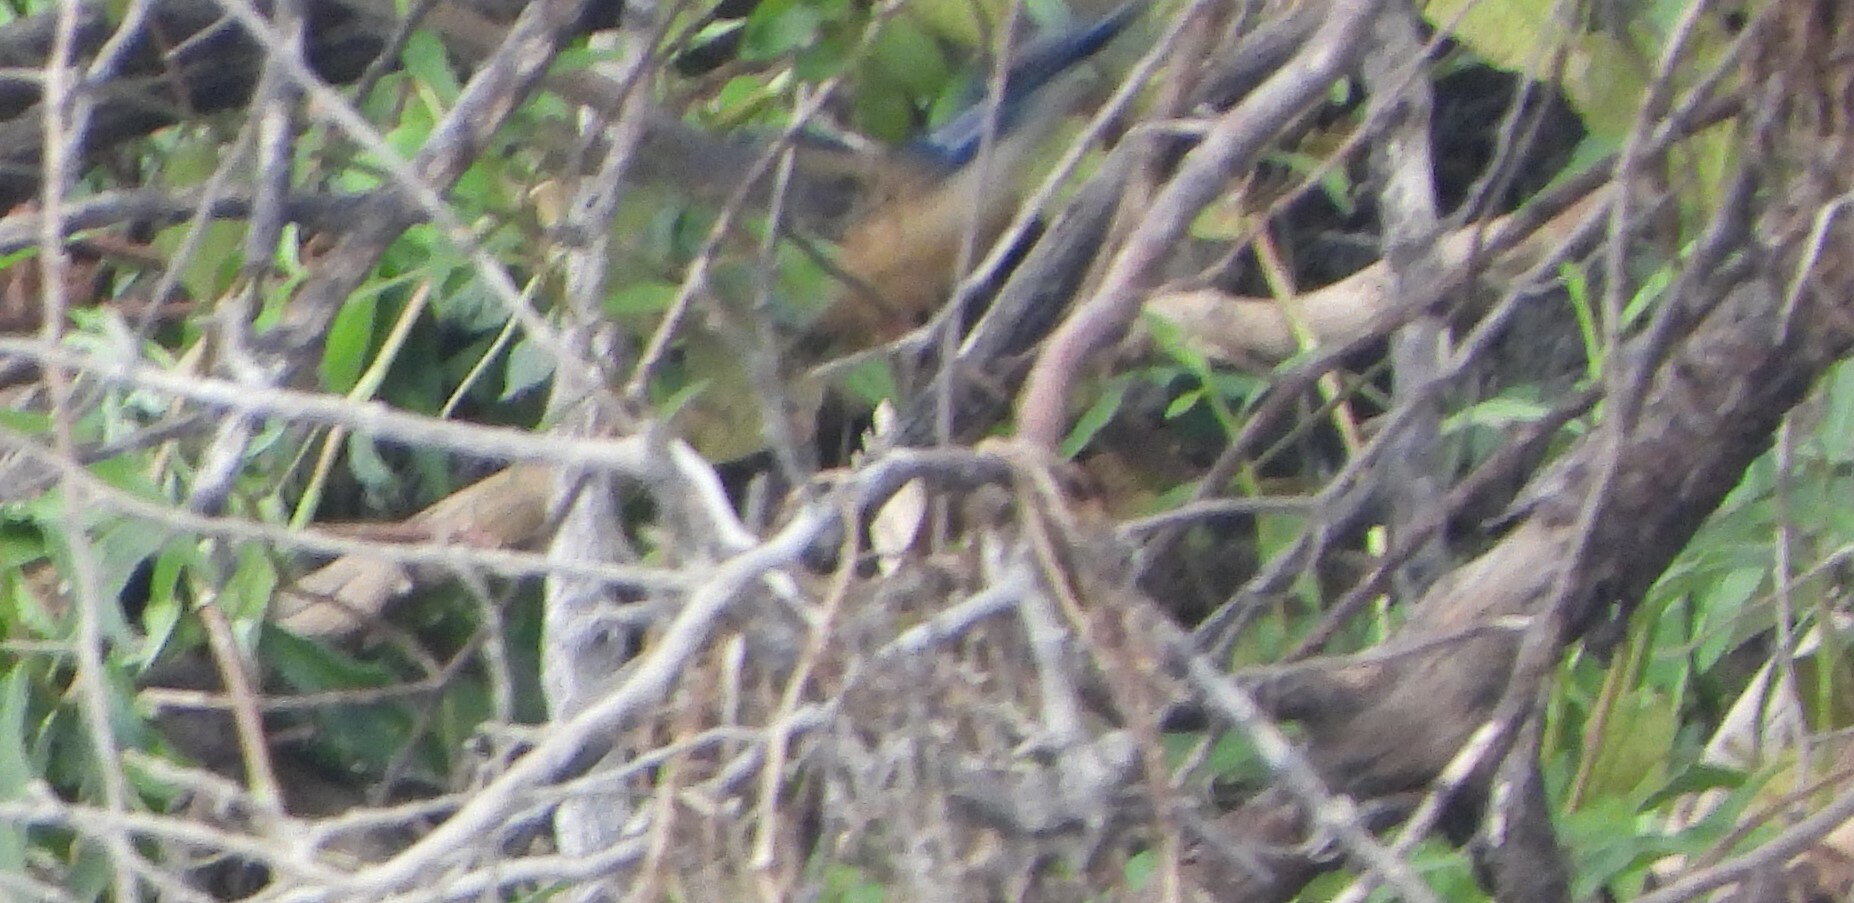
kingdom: Animalia
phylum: Chordata
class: Aves
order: Coraciiformes
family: Alcedinidae
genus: Alcedo
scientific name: Alcedo semitorquata
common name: Half-collared kingfisher
